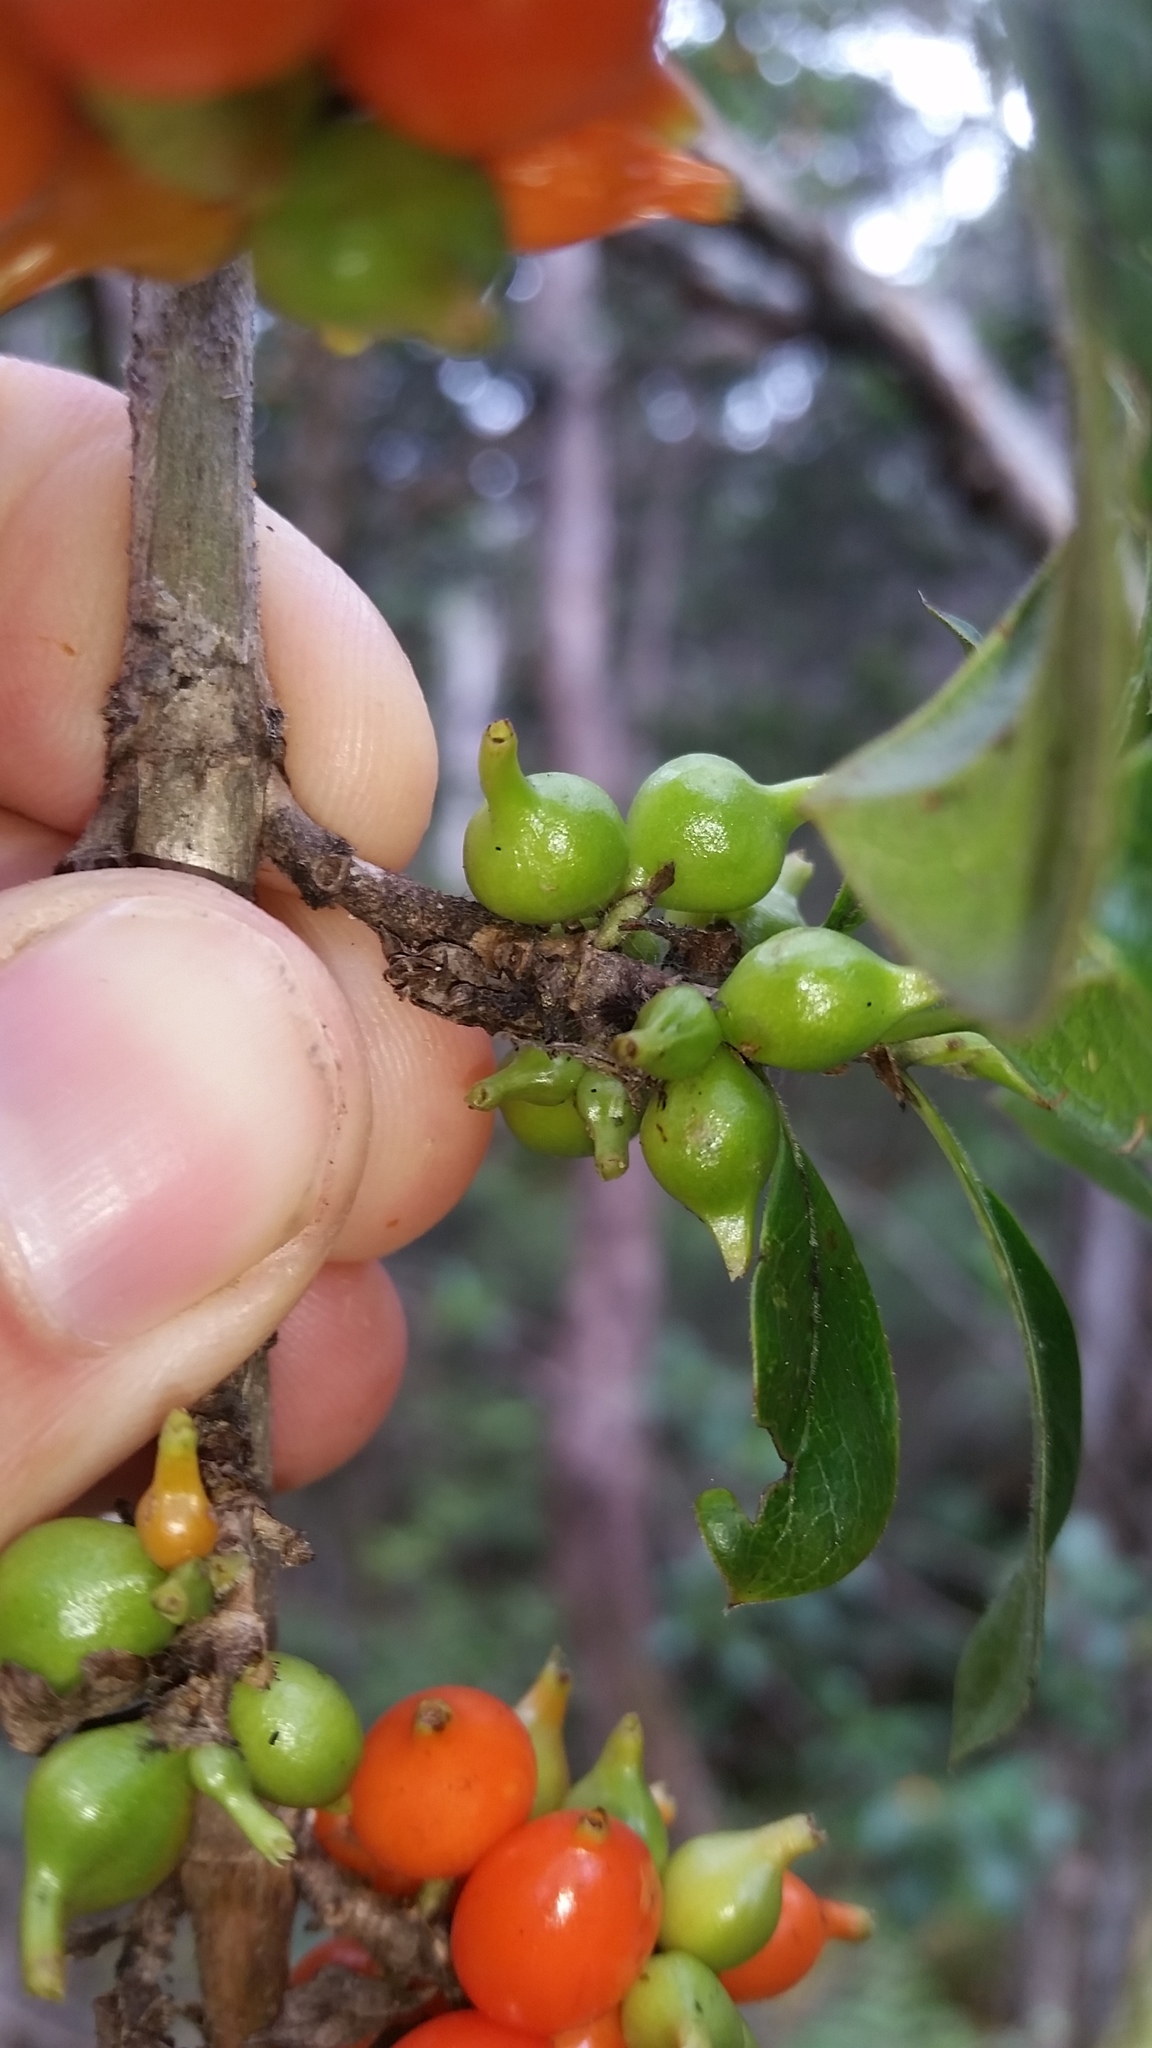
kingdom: Plantae
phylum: Tracheophyta
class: Magnoliopsida
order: Gentianales
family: Rubiaceae
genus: Coprosma
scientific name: Coprosma rhynchocarpa
